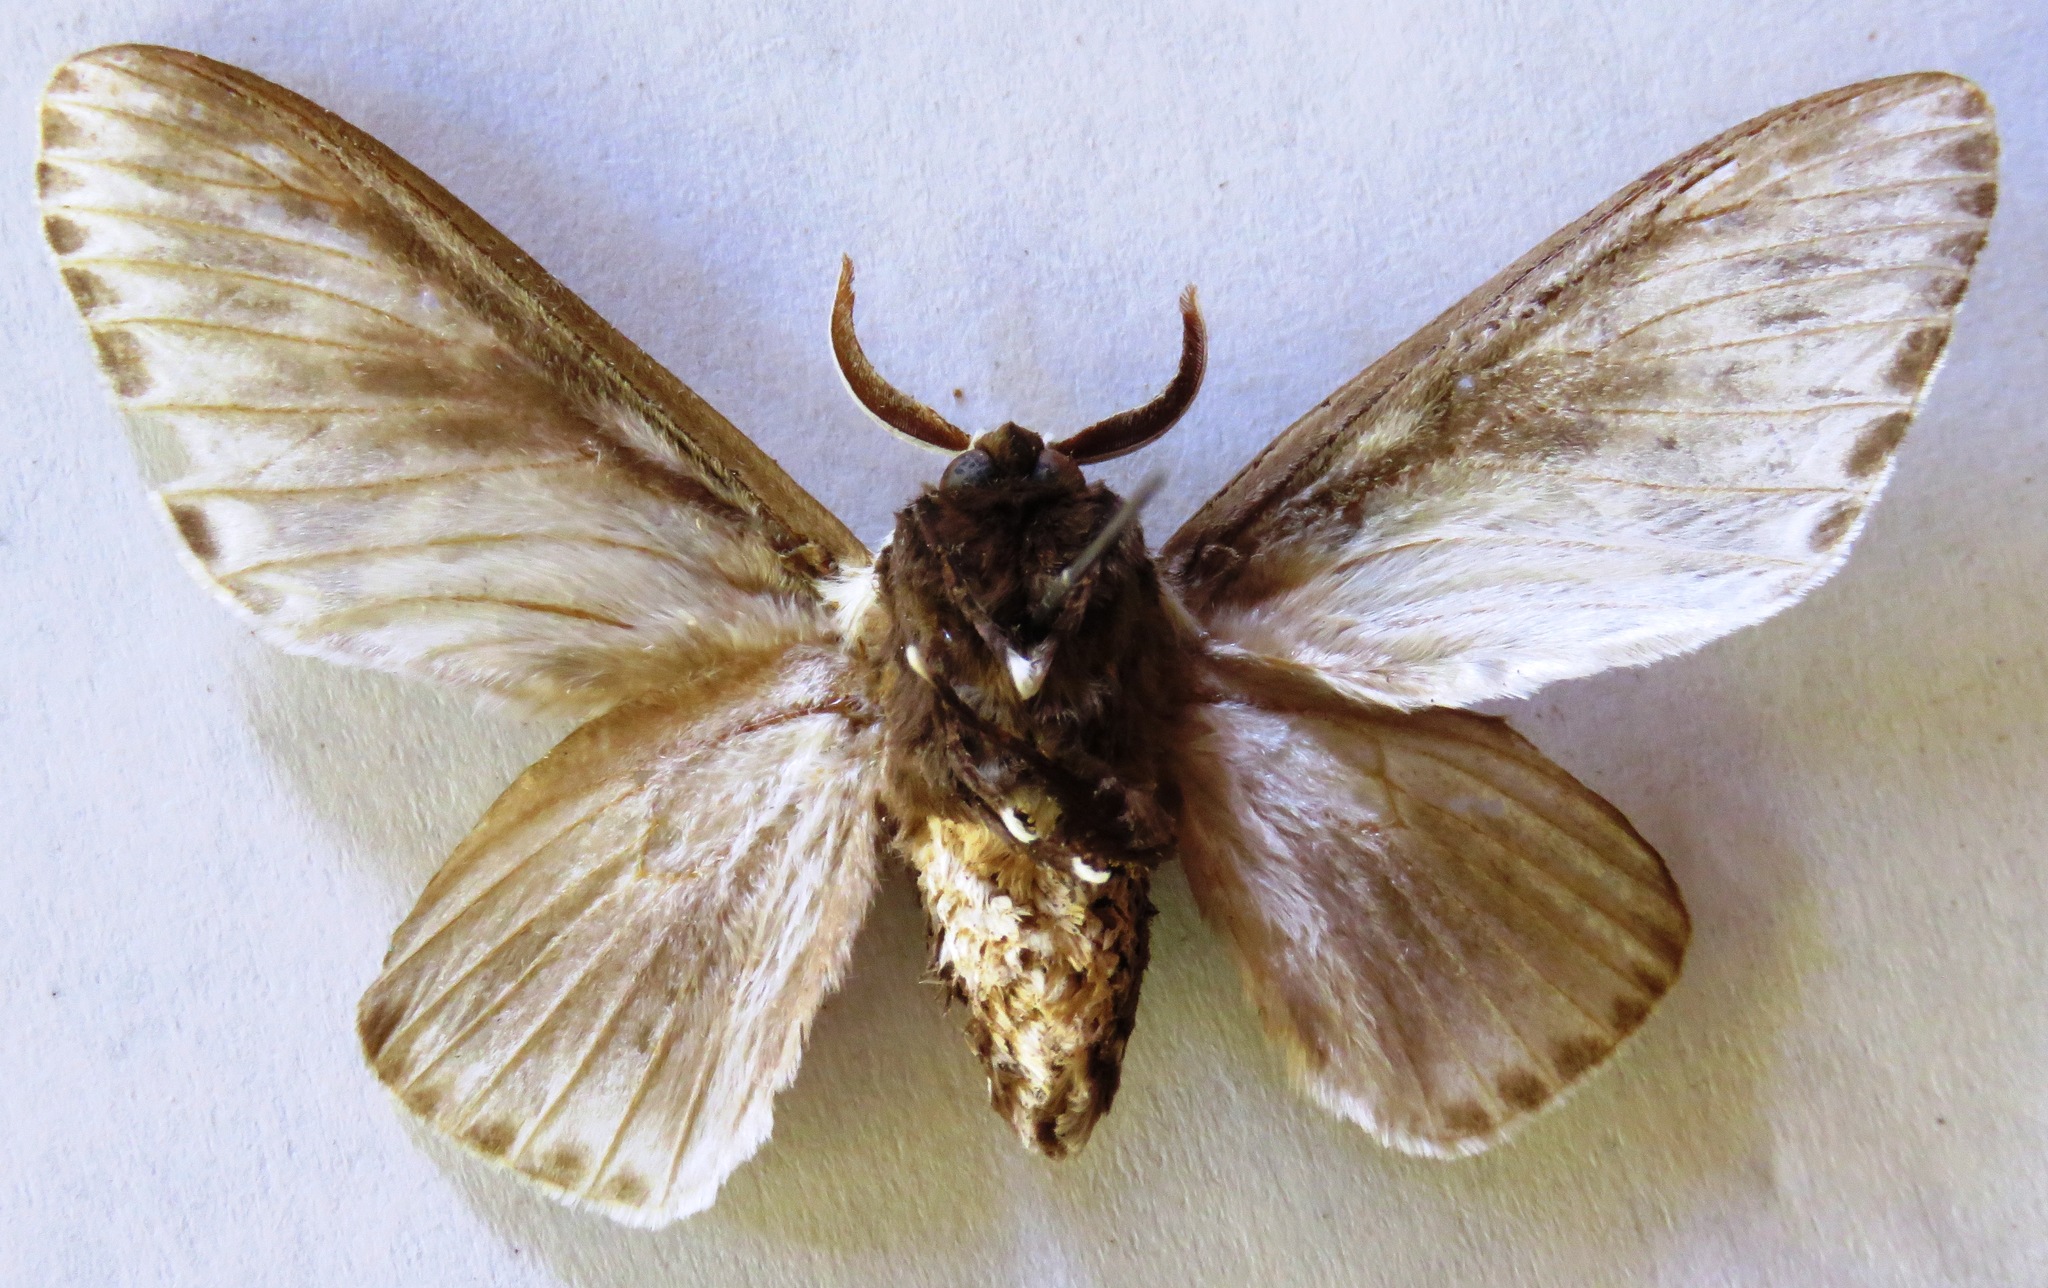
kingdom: Animalia
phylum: Arthropoda
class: Insecta
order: Lepidoptera
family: Megalopygidae
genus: Podalia
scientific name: Podalia orsilochus
